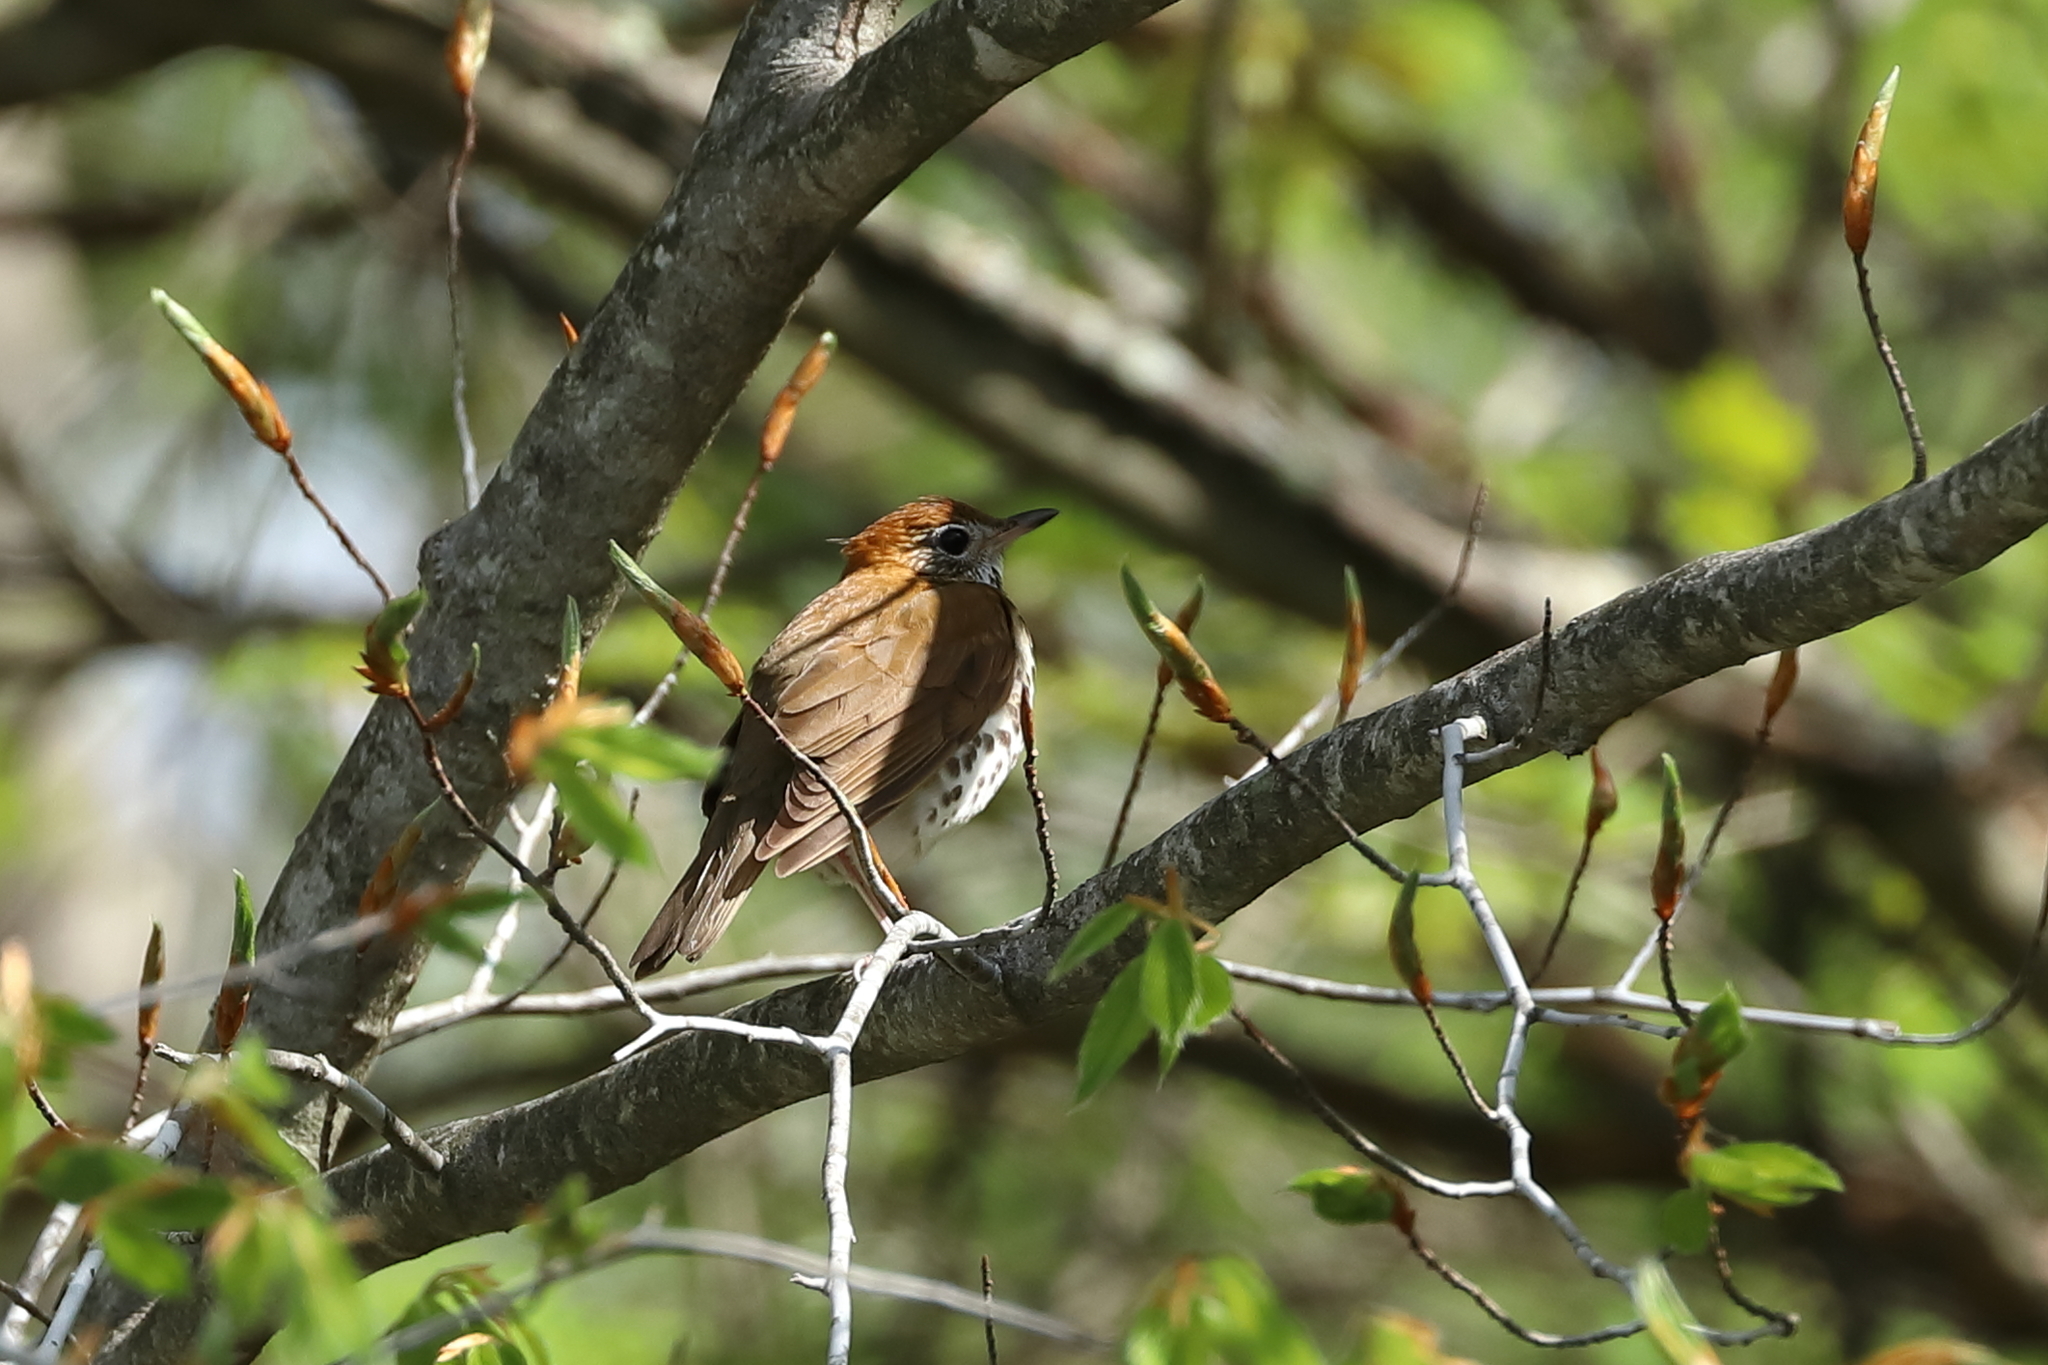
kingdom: Animalia
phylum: Chordata
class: Aves
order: Passeriformes
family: Turdidae
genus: Hylocichla
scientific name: Hylocichla mustelina
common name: Wood thrush
